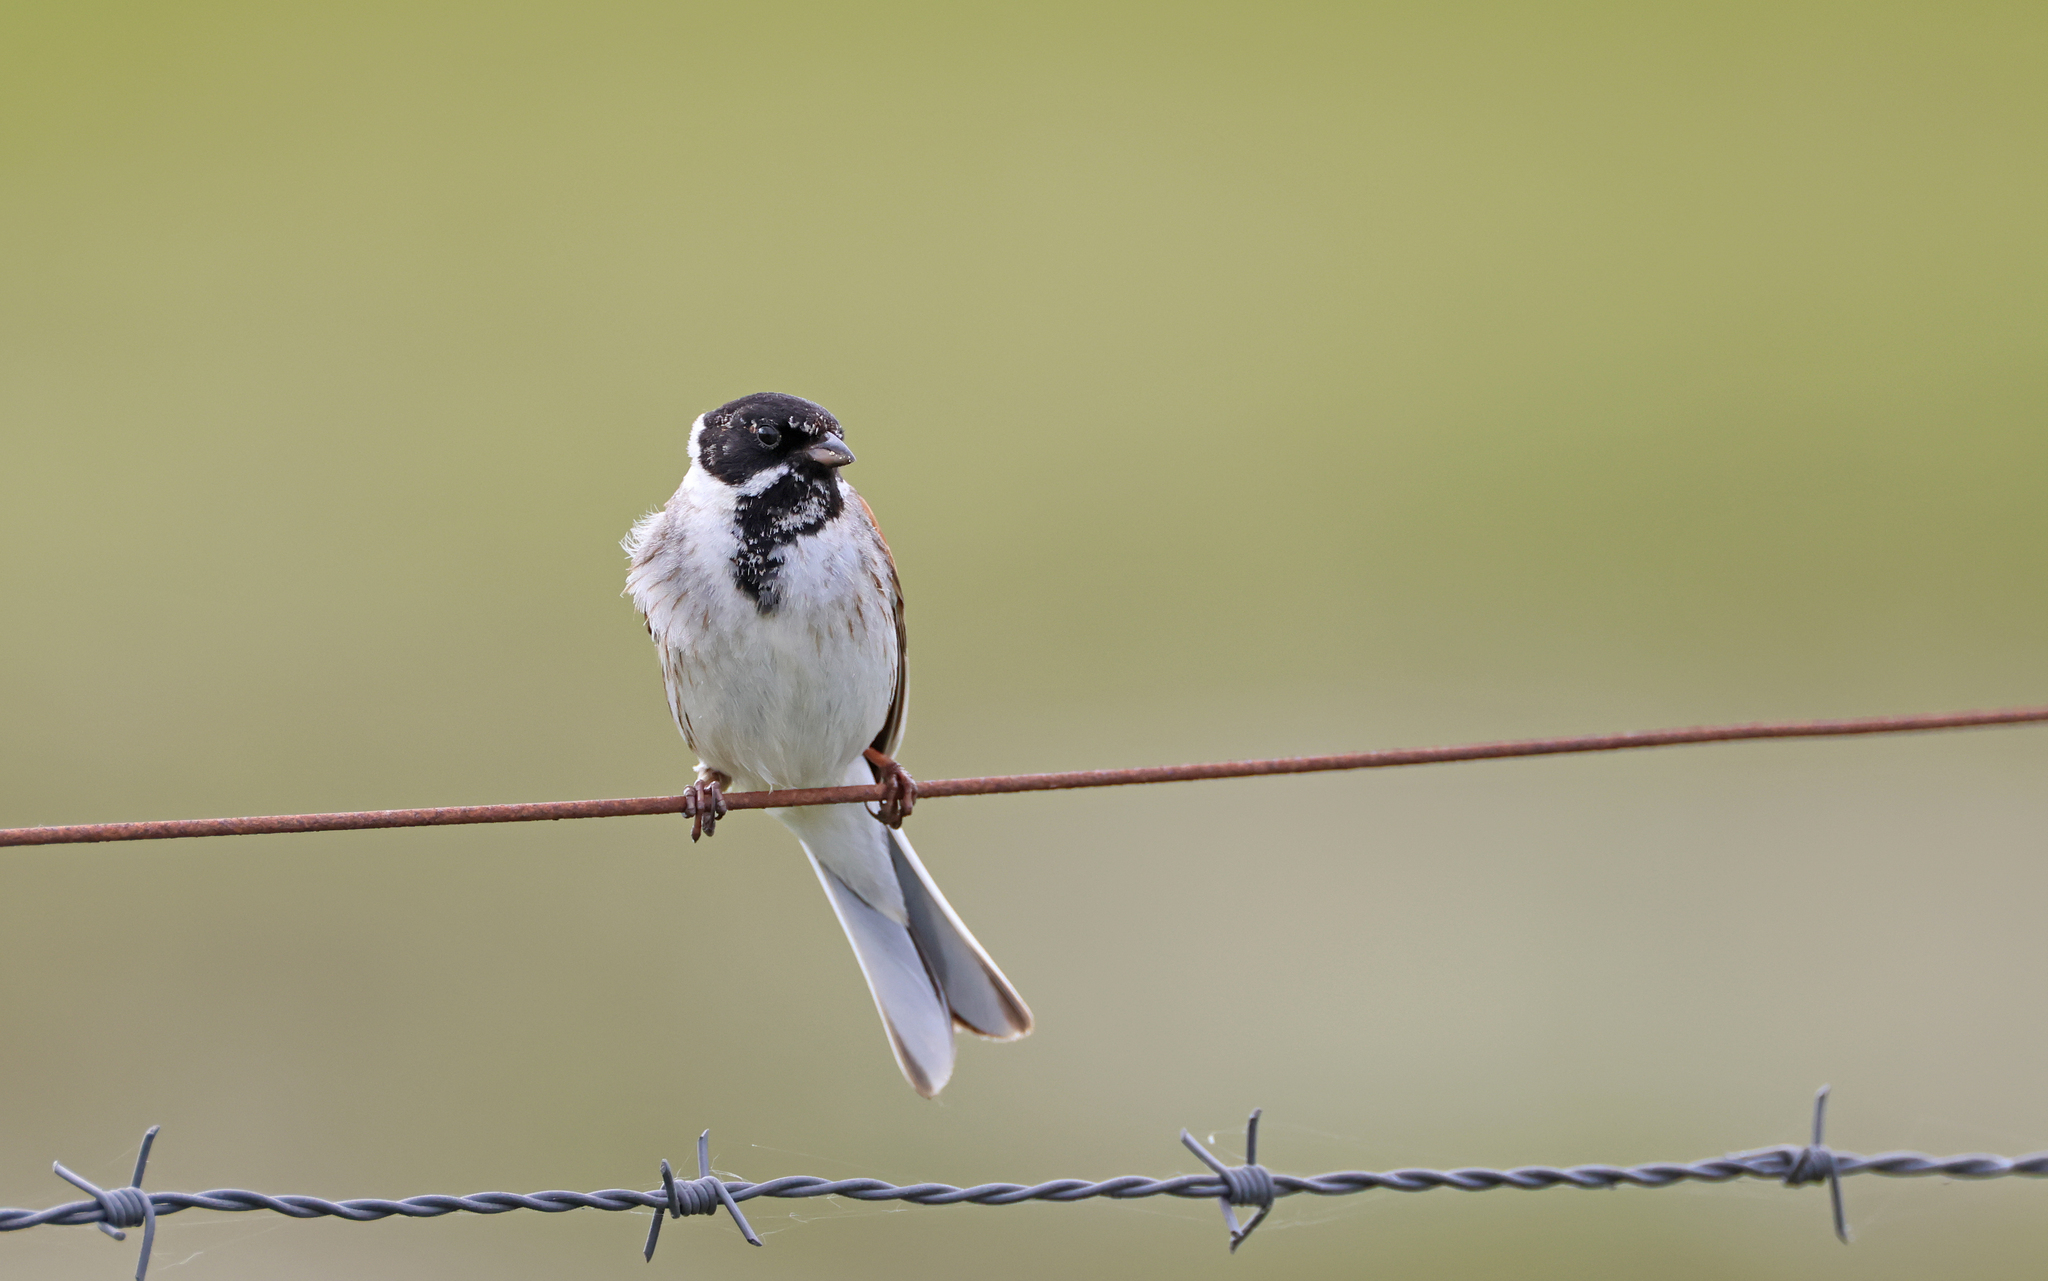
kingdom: Animalia
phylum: Chordata
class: Aves
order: Passeriformes
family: Emberizidae
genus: Emberiza
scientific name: Emberiza schoeniclus
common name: Reed bunting
